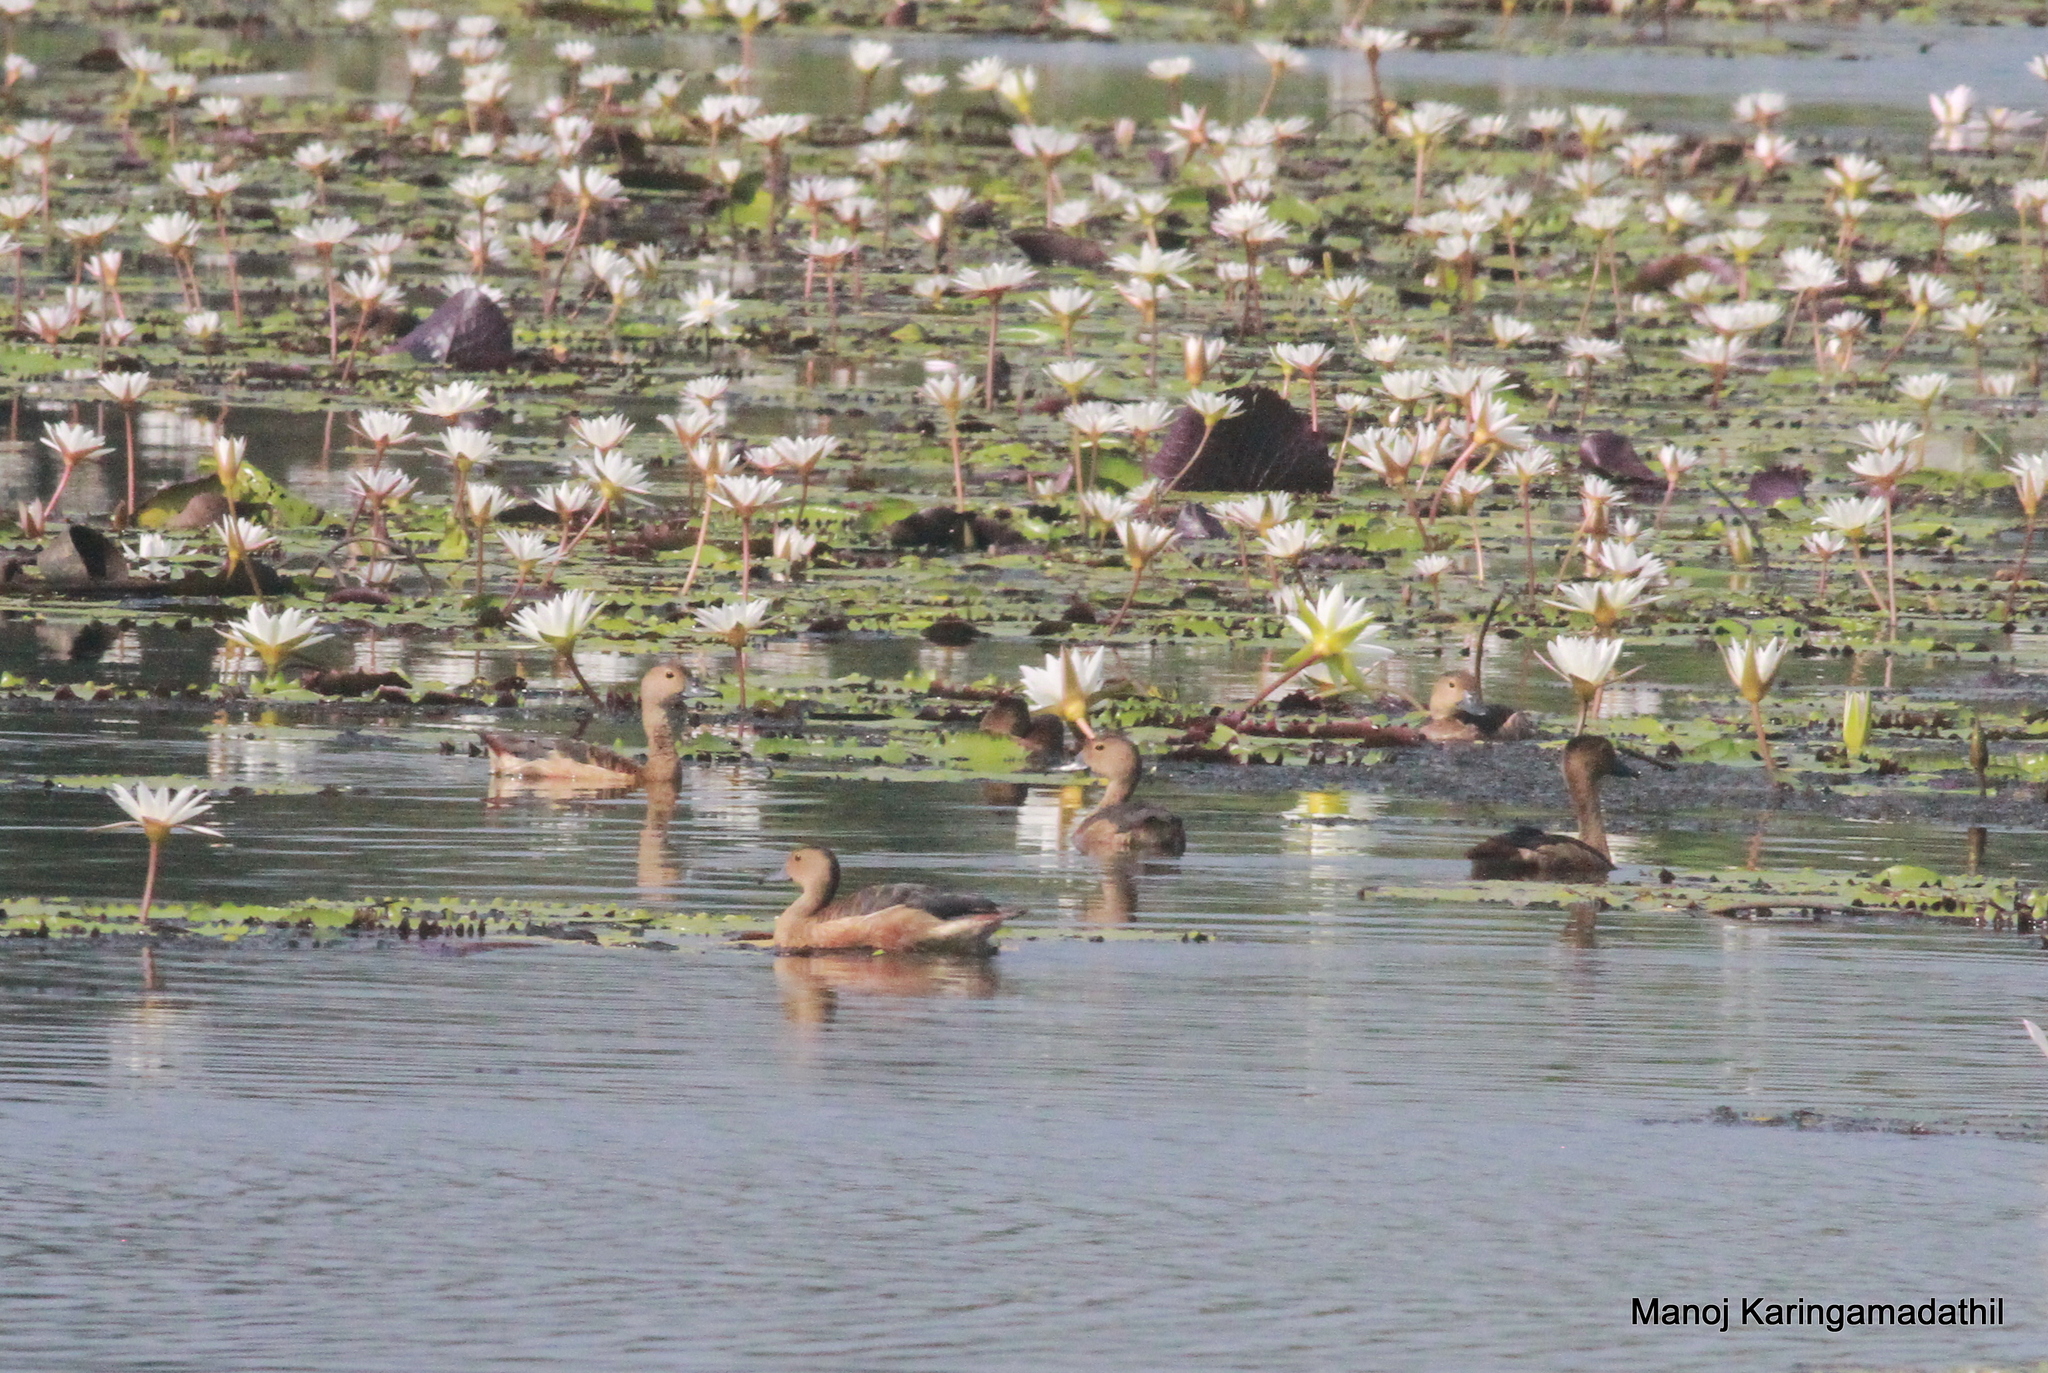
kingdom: Animalia
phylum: Chordata
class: Aves
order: Anseriformes
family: Anatidae
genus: Dendrocygna
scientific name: Dendrocygna javanica
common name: Lesser whistling-duck
